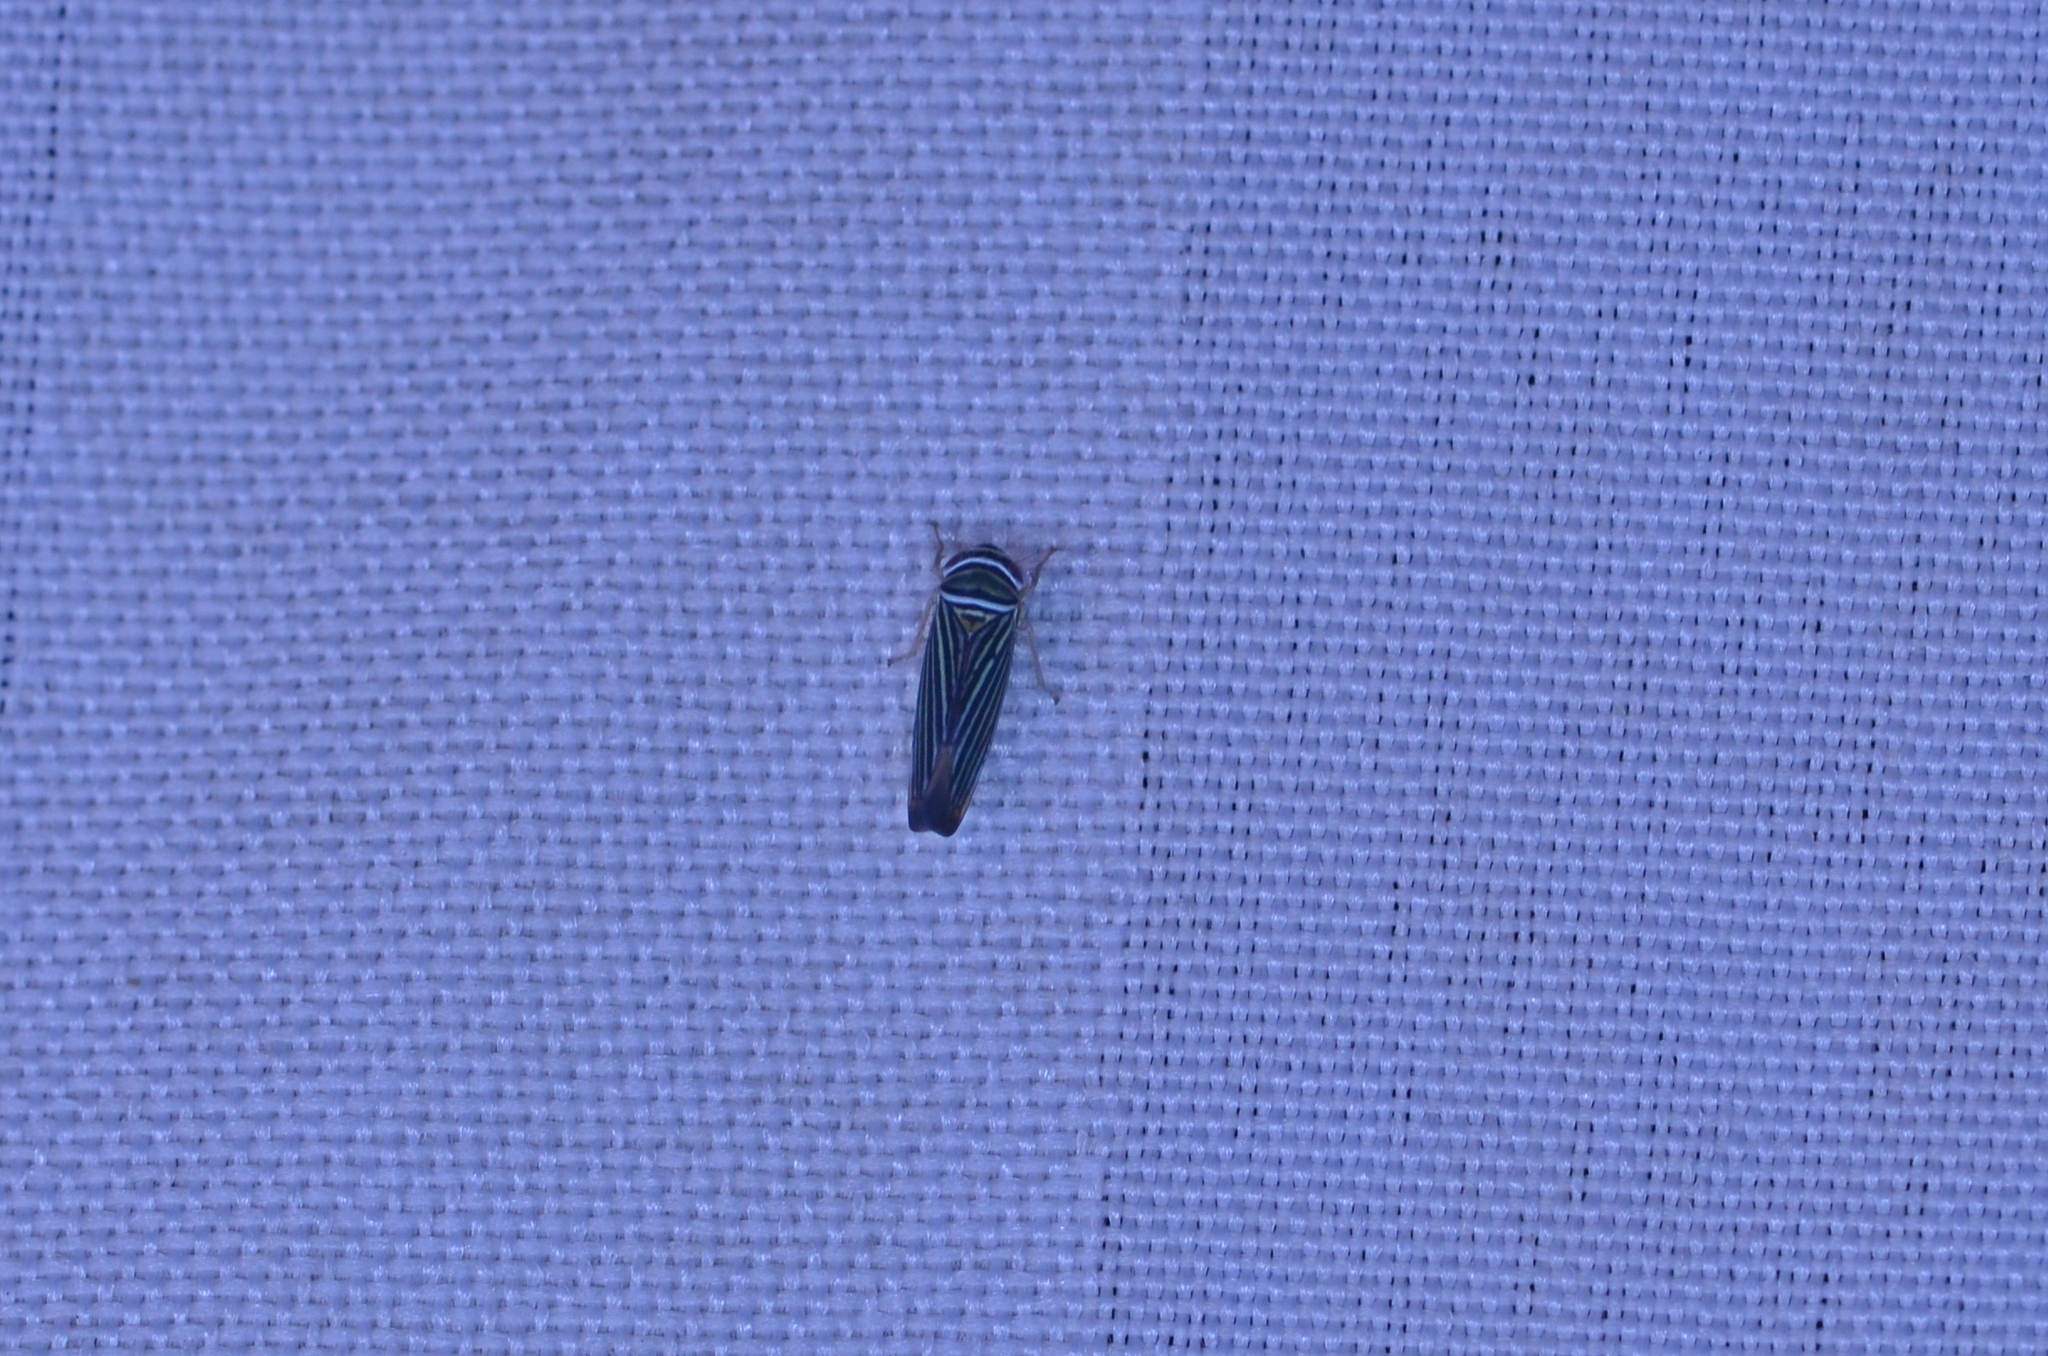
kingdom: Animalia
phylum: Arthropoda
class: Insecta
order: Hemiptera
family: Cicadellidae
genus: Tylozygus
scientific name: Tylozygus bifidus
